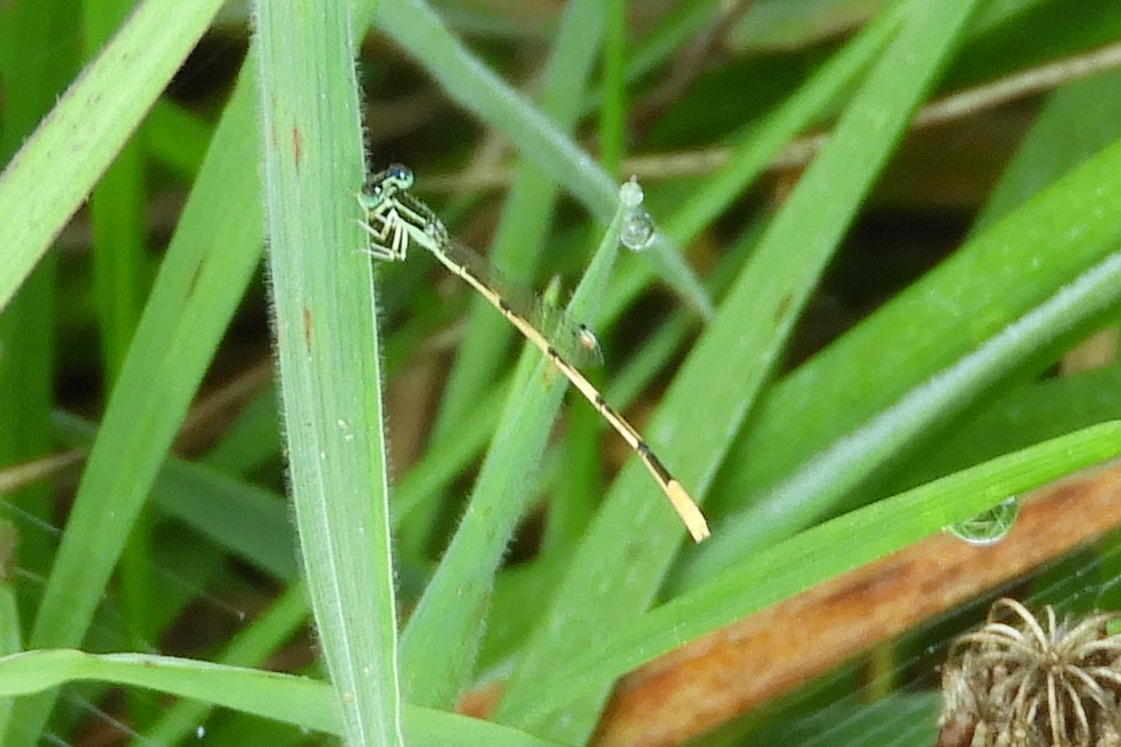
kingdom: Animalia
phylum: Arthropoda
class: Insecta
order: Odonata
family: Coenagrionidae
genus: Ischnura
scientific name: Ischnura hastata
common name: Citrine forktail
